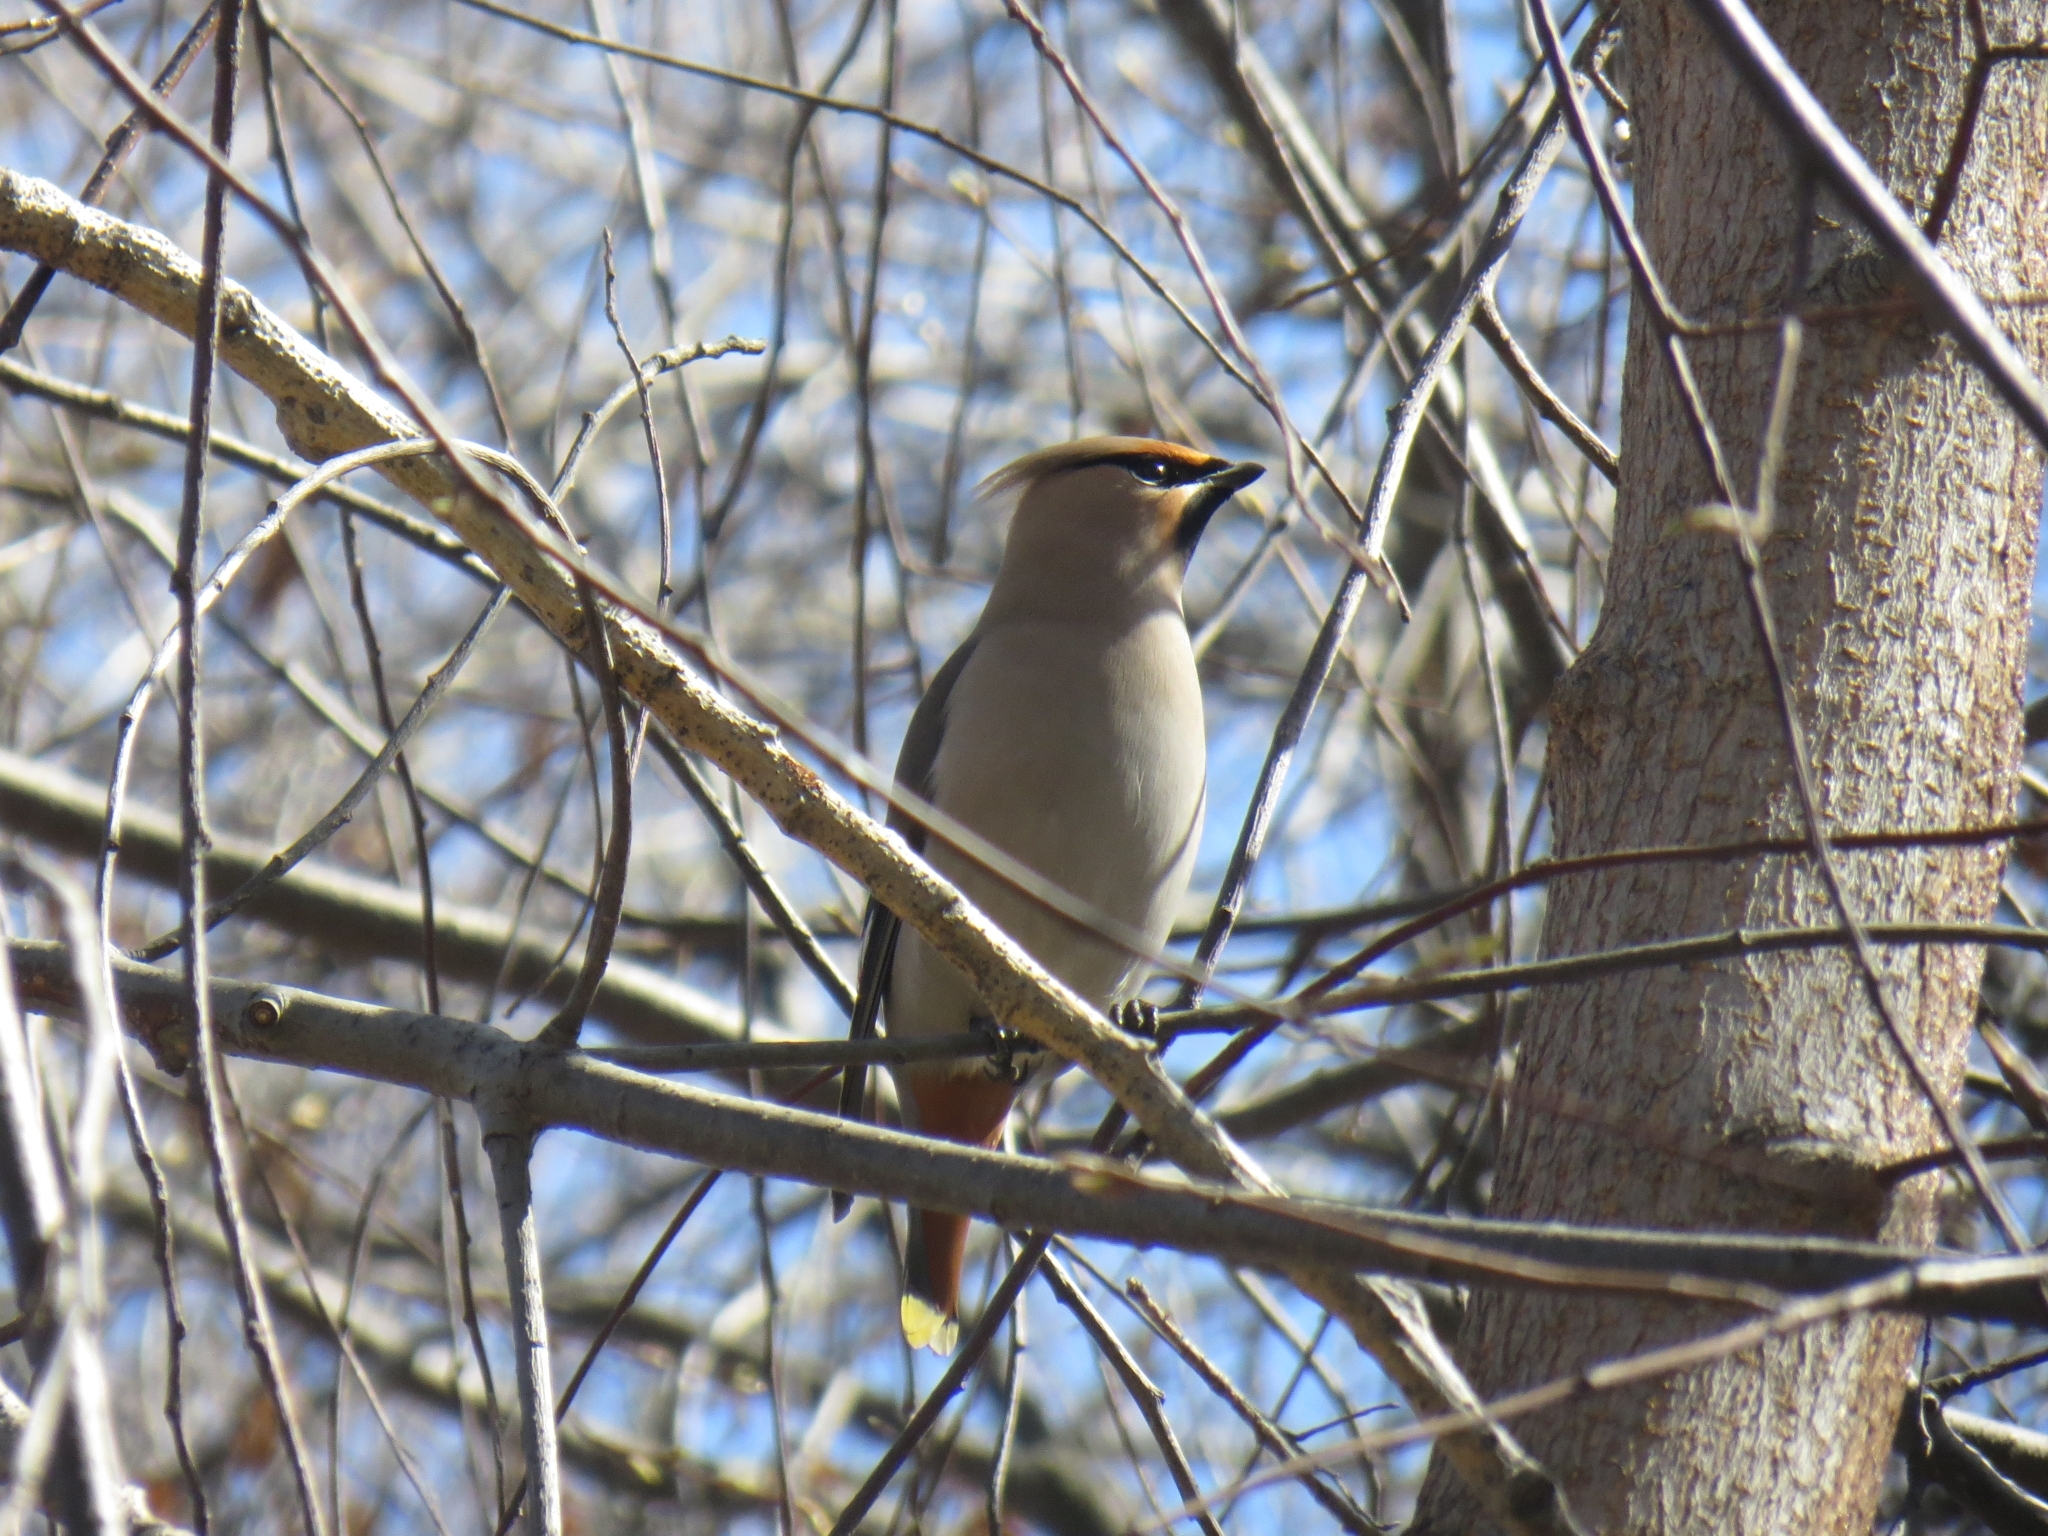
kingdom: Animalia
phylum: Chordata
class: Aves
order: Passeriformes
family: Bombycillidae
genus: Bombycilla
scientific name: Bombycilla garrulus
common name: Bohemian waxwing
